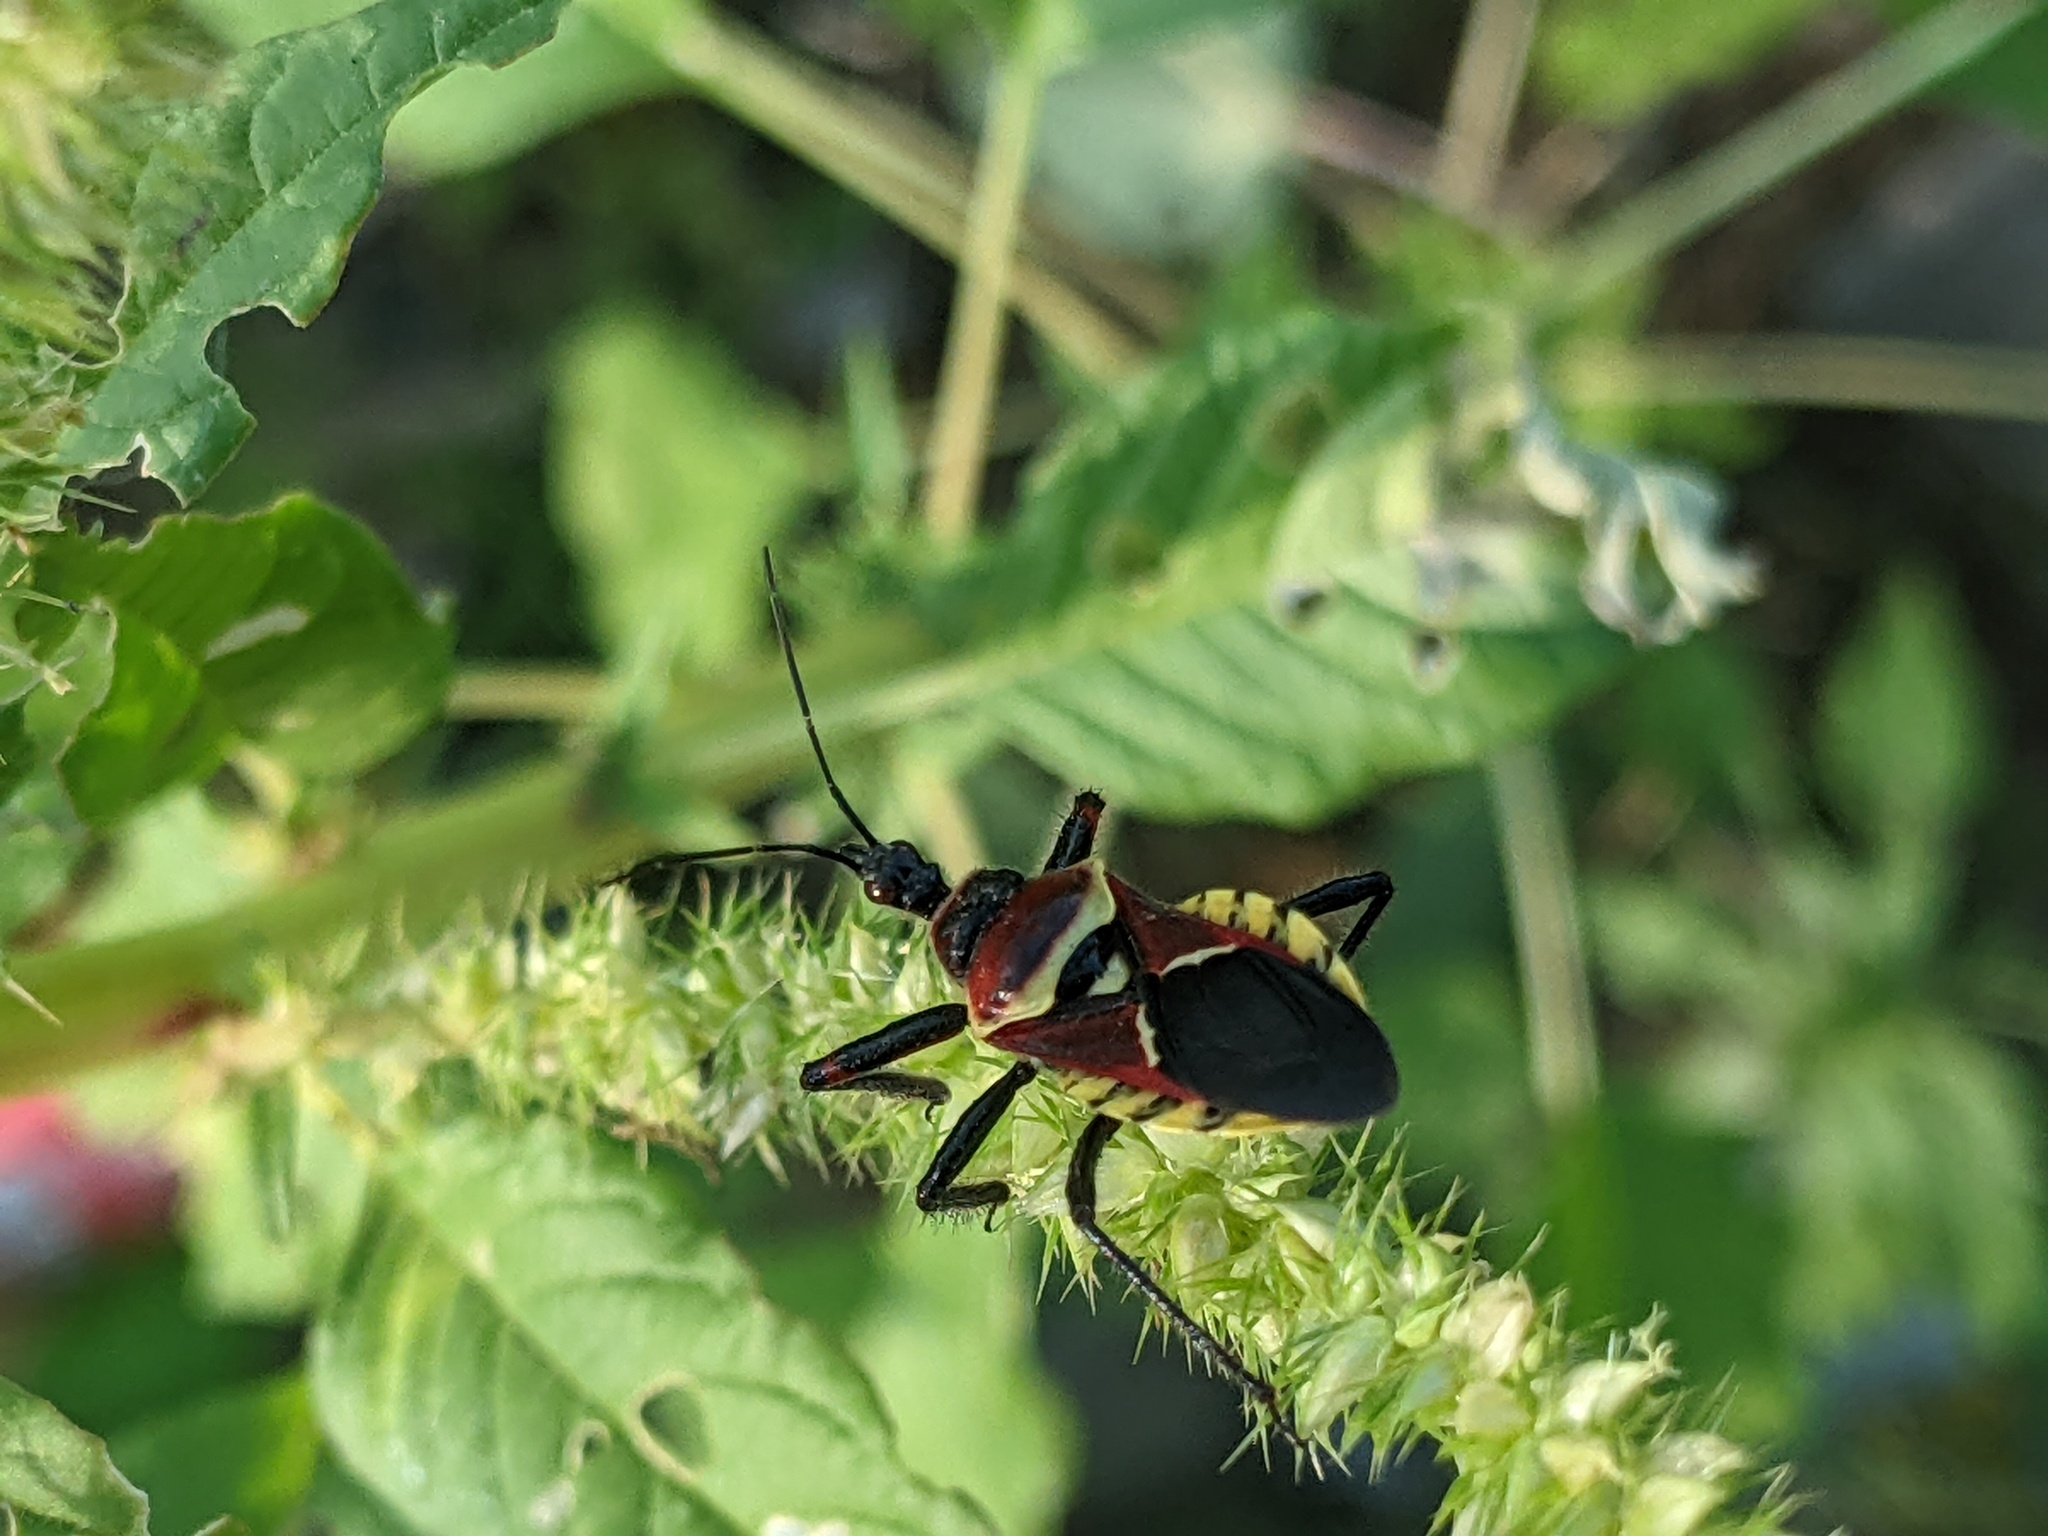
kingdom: Animalia
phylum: Arthropoda
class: Insecta
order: Hemiptera
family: Reduviidae
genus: Apiomerus
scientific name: Apiomerus flaviventris
